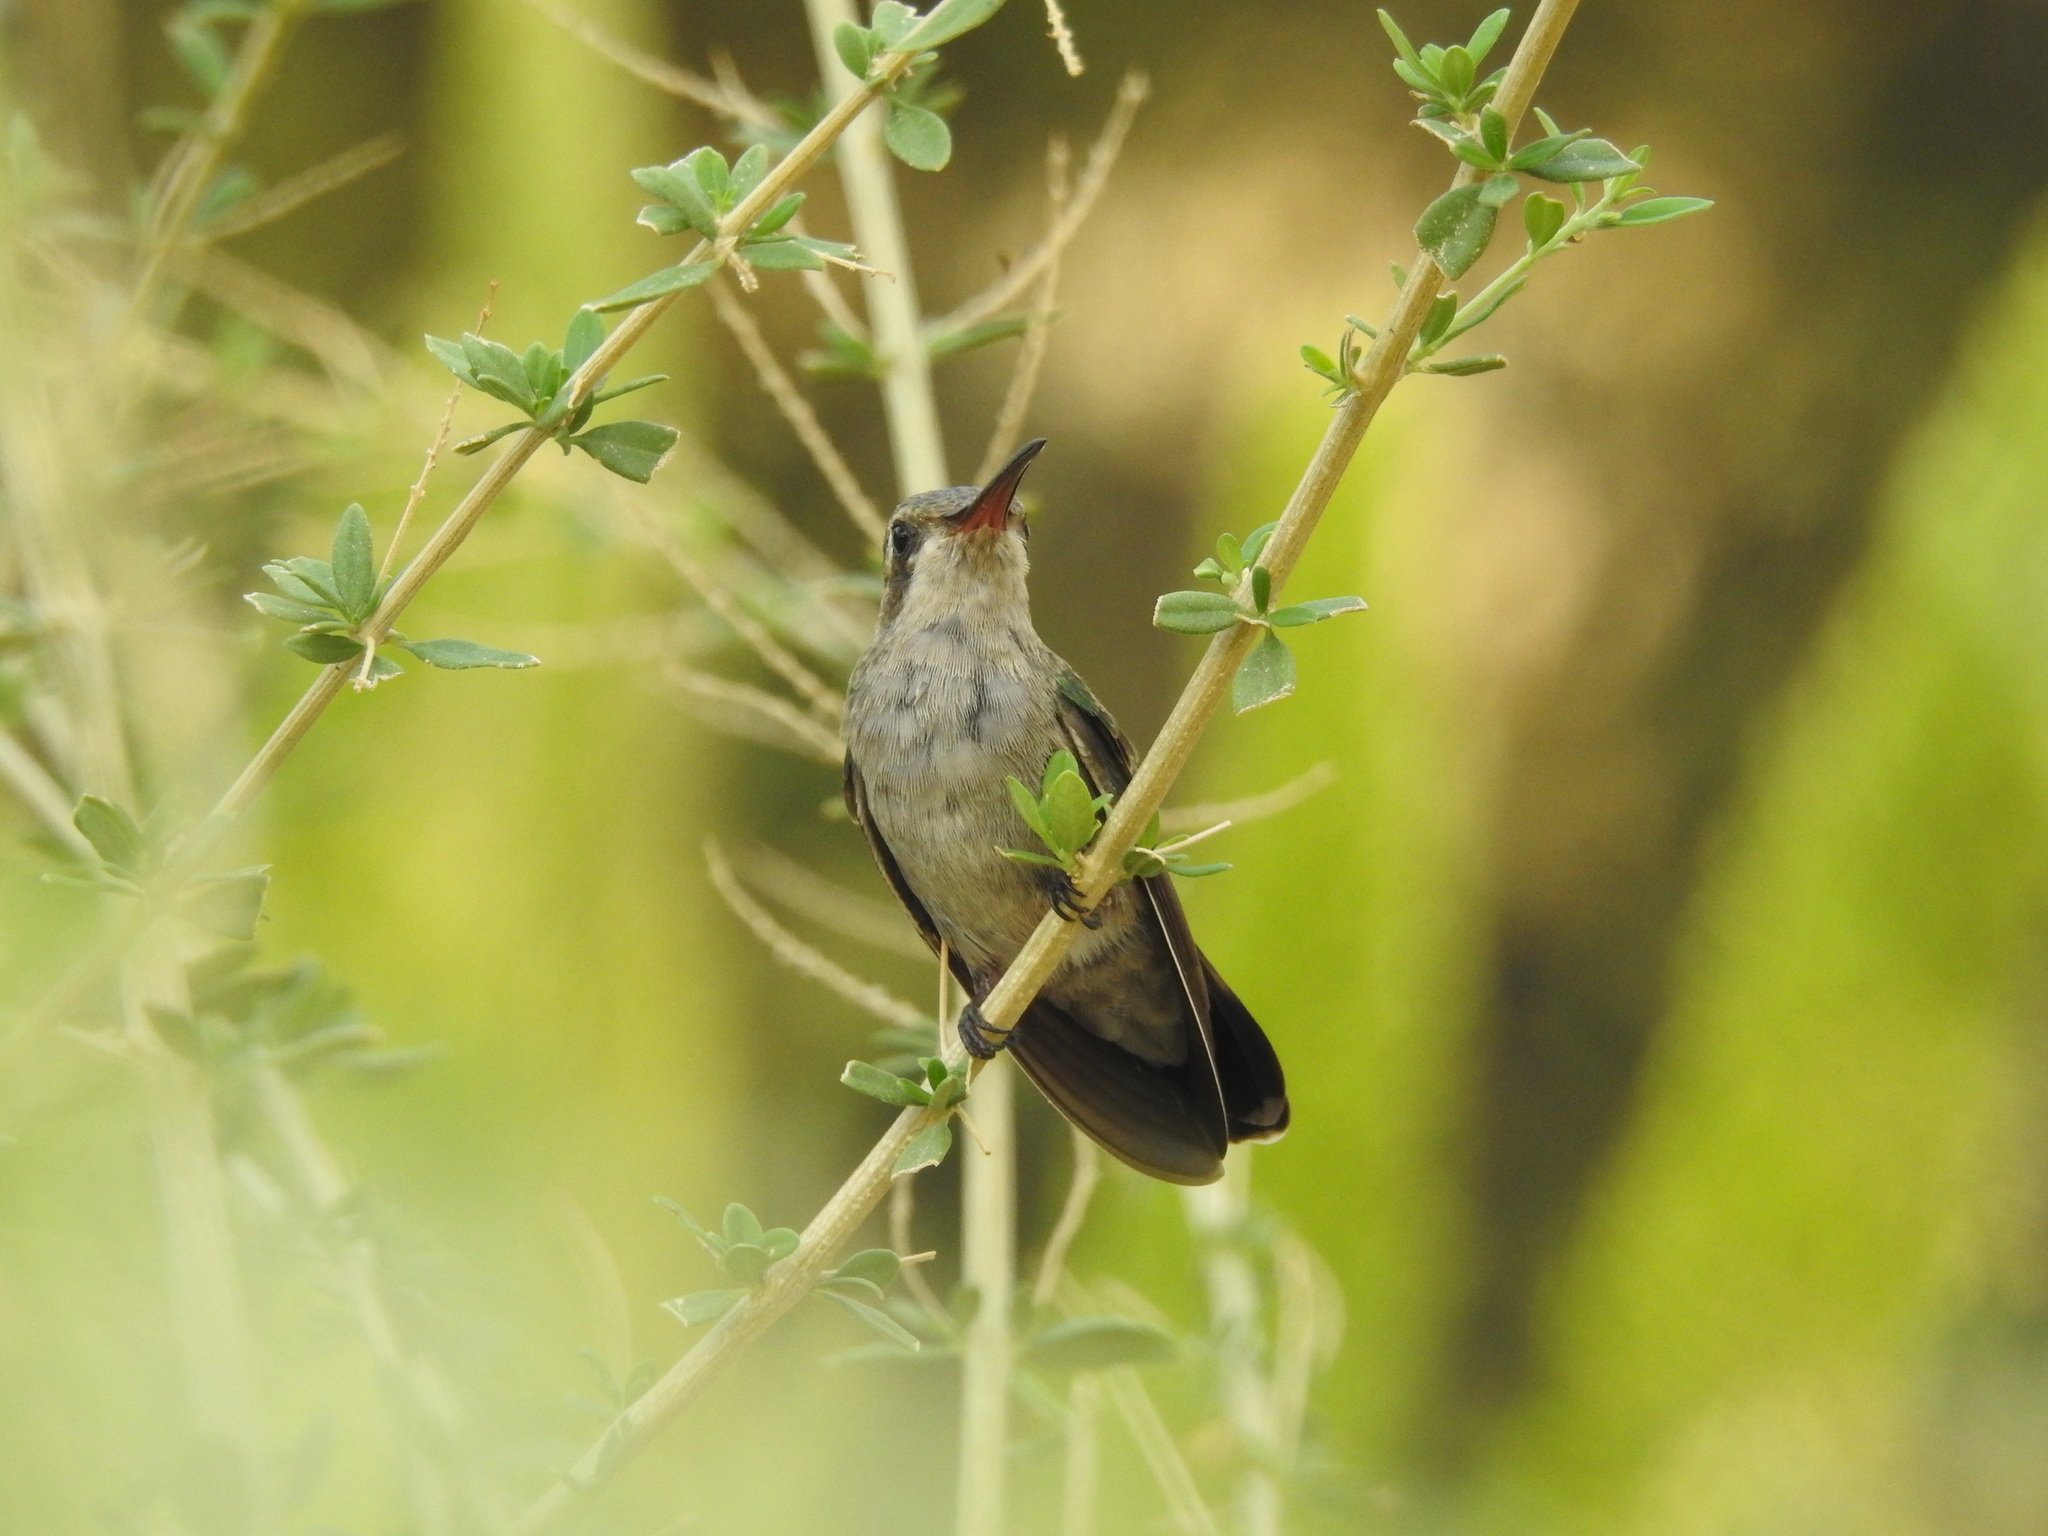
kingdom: Animalia
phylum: Chordata
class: Aves
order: Apodiformes
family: Trochilidae
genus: Cynanthus
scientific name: Cynanthus latirostris
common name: Broad-billed hummingbird
